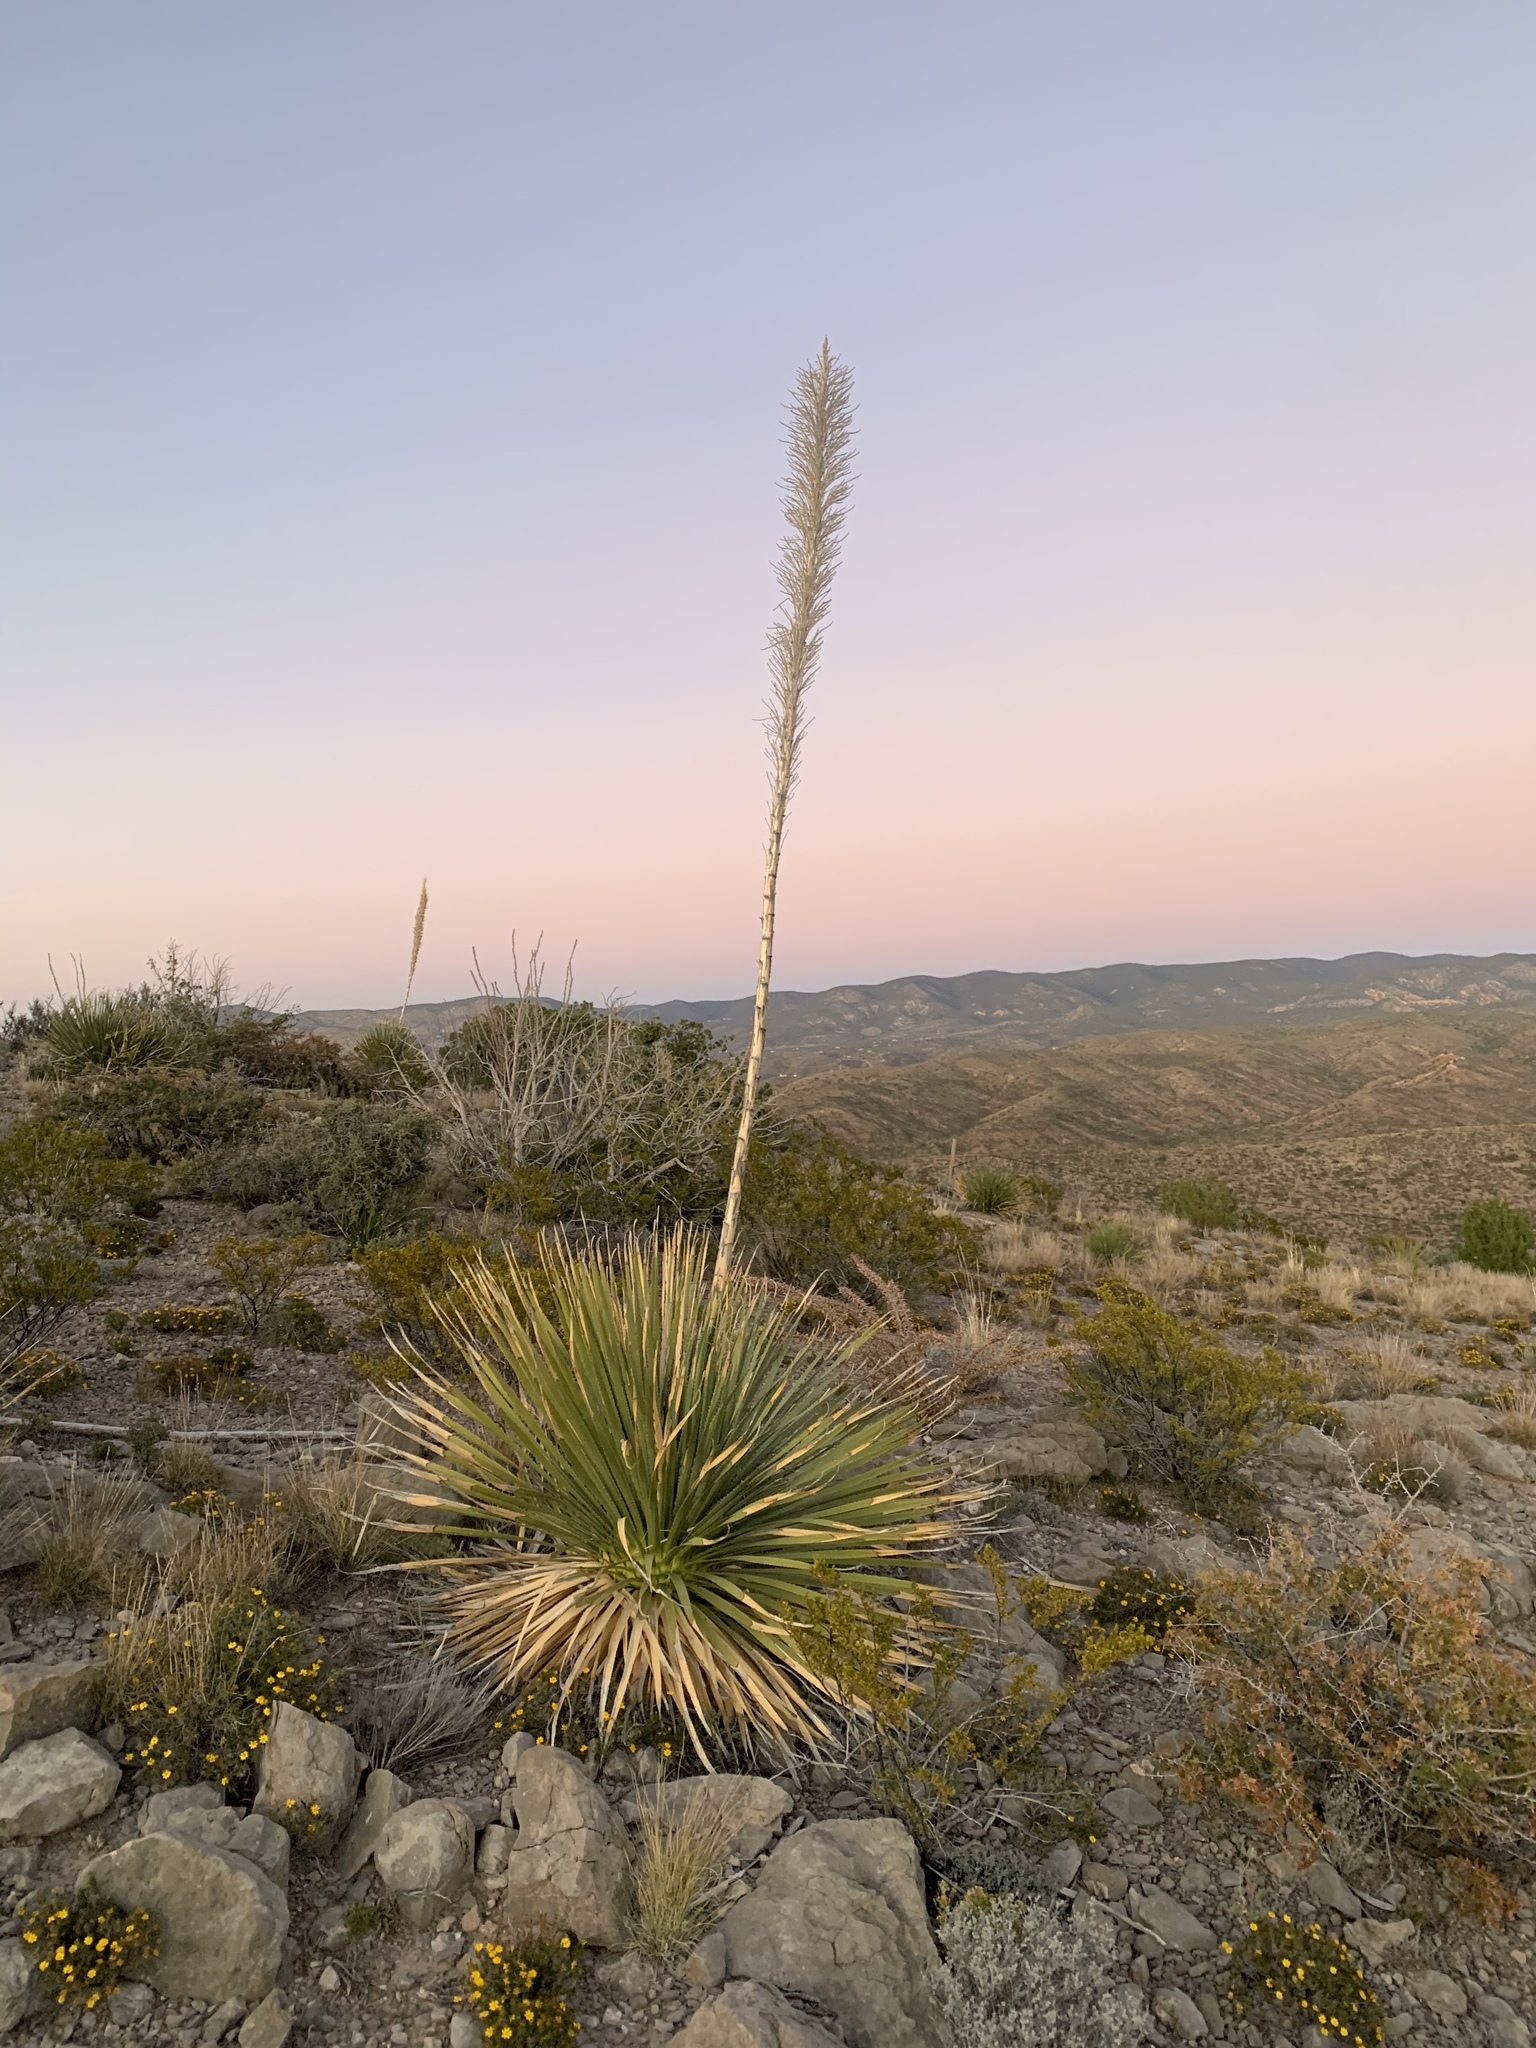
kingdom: Plantae
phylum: Tracheophyta
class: Liliopsida
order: Asparagales
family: Asparagaceae
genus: Dasylirion
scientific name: Dasylirion wheeleri
